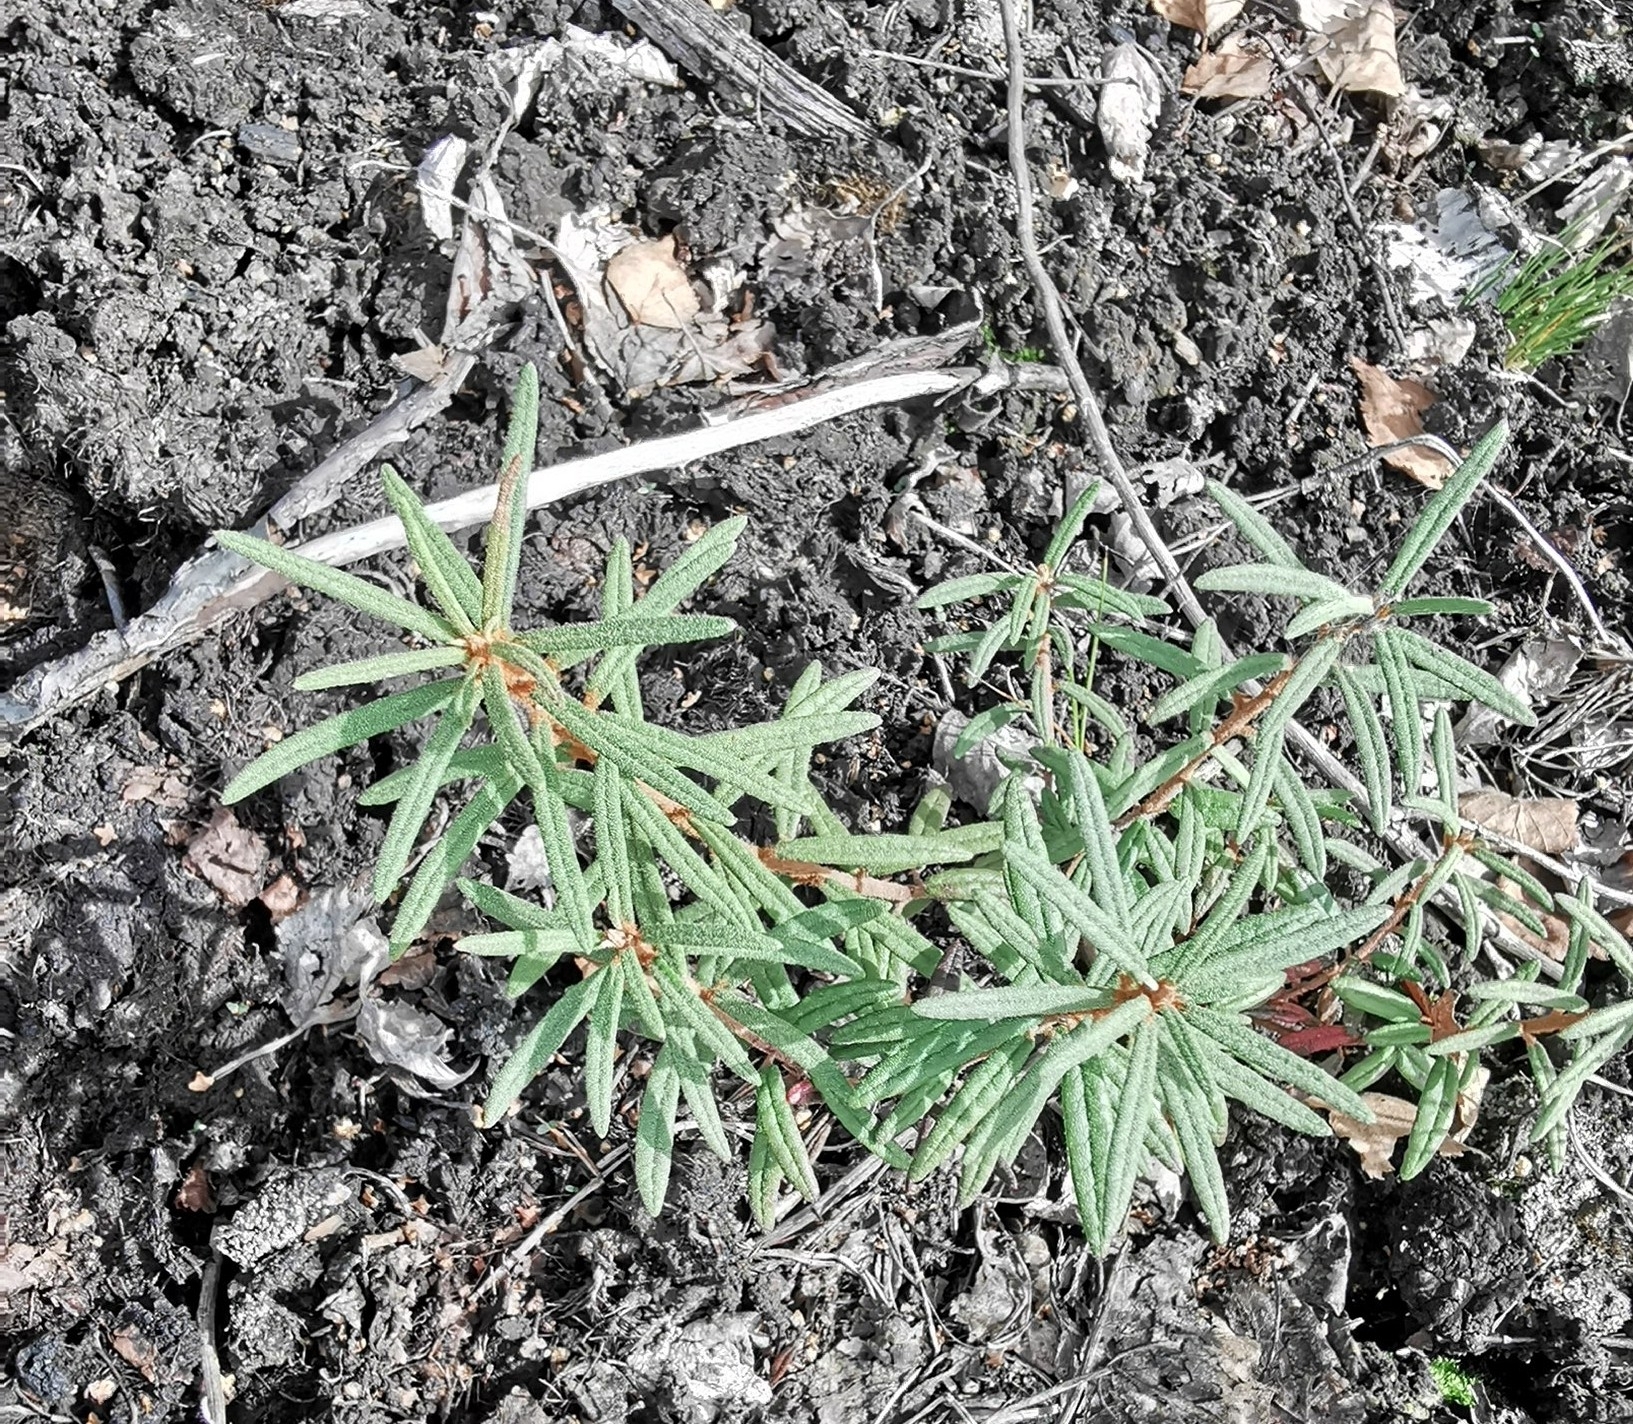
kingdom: Plantae
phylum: Tracheophyta
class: Magnoliopsida
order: Ericales
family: Ericaceae
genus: Rhododendron
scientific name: Rhododendron tomentosum
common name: Marsh labrador tea
